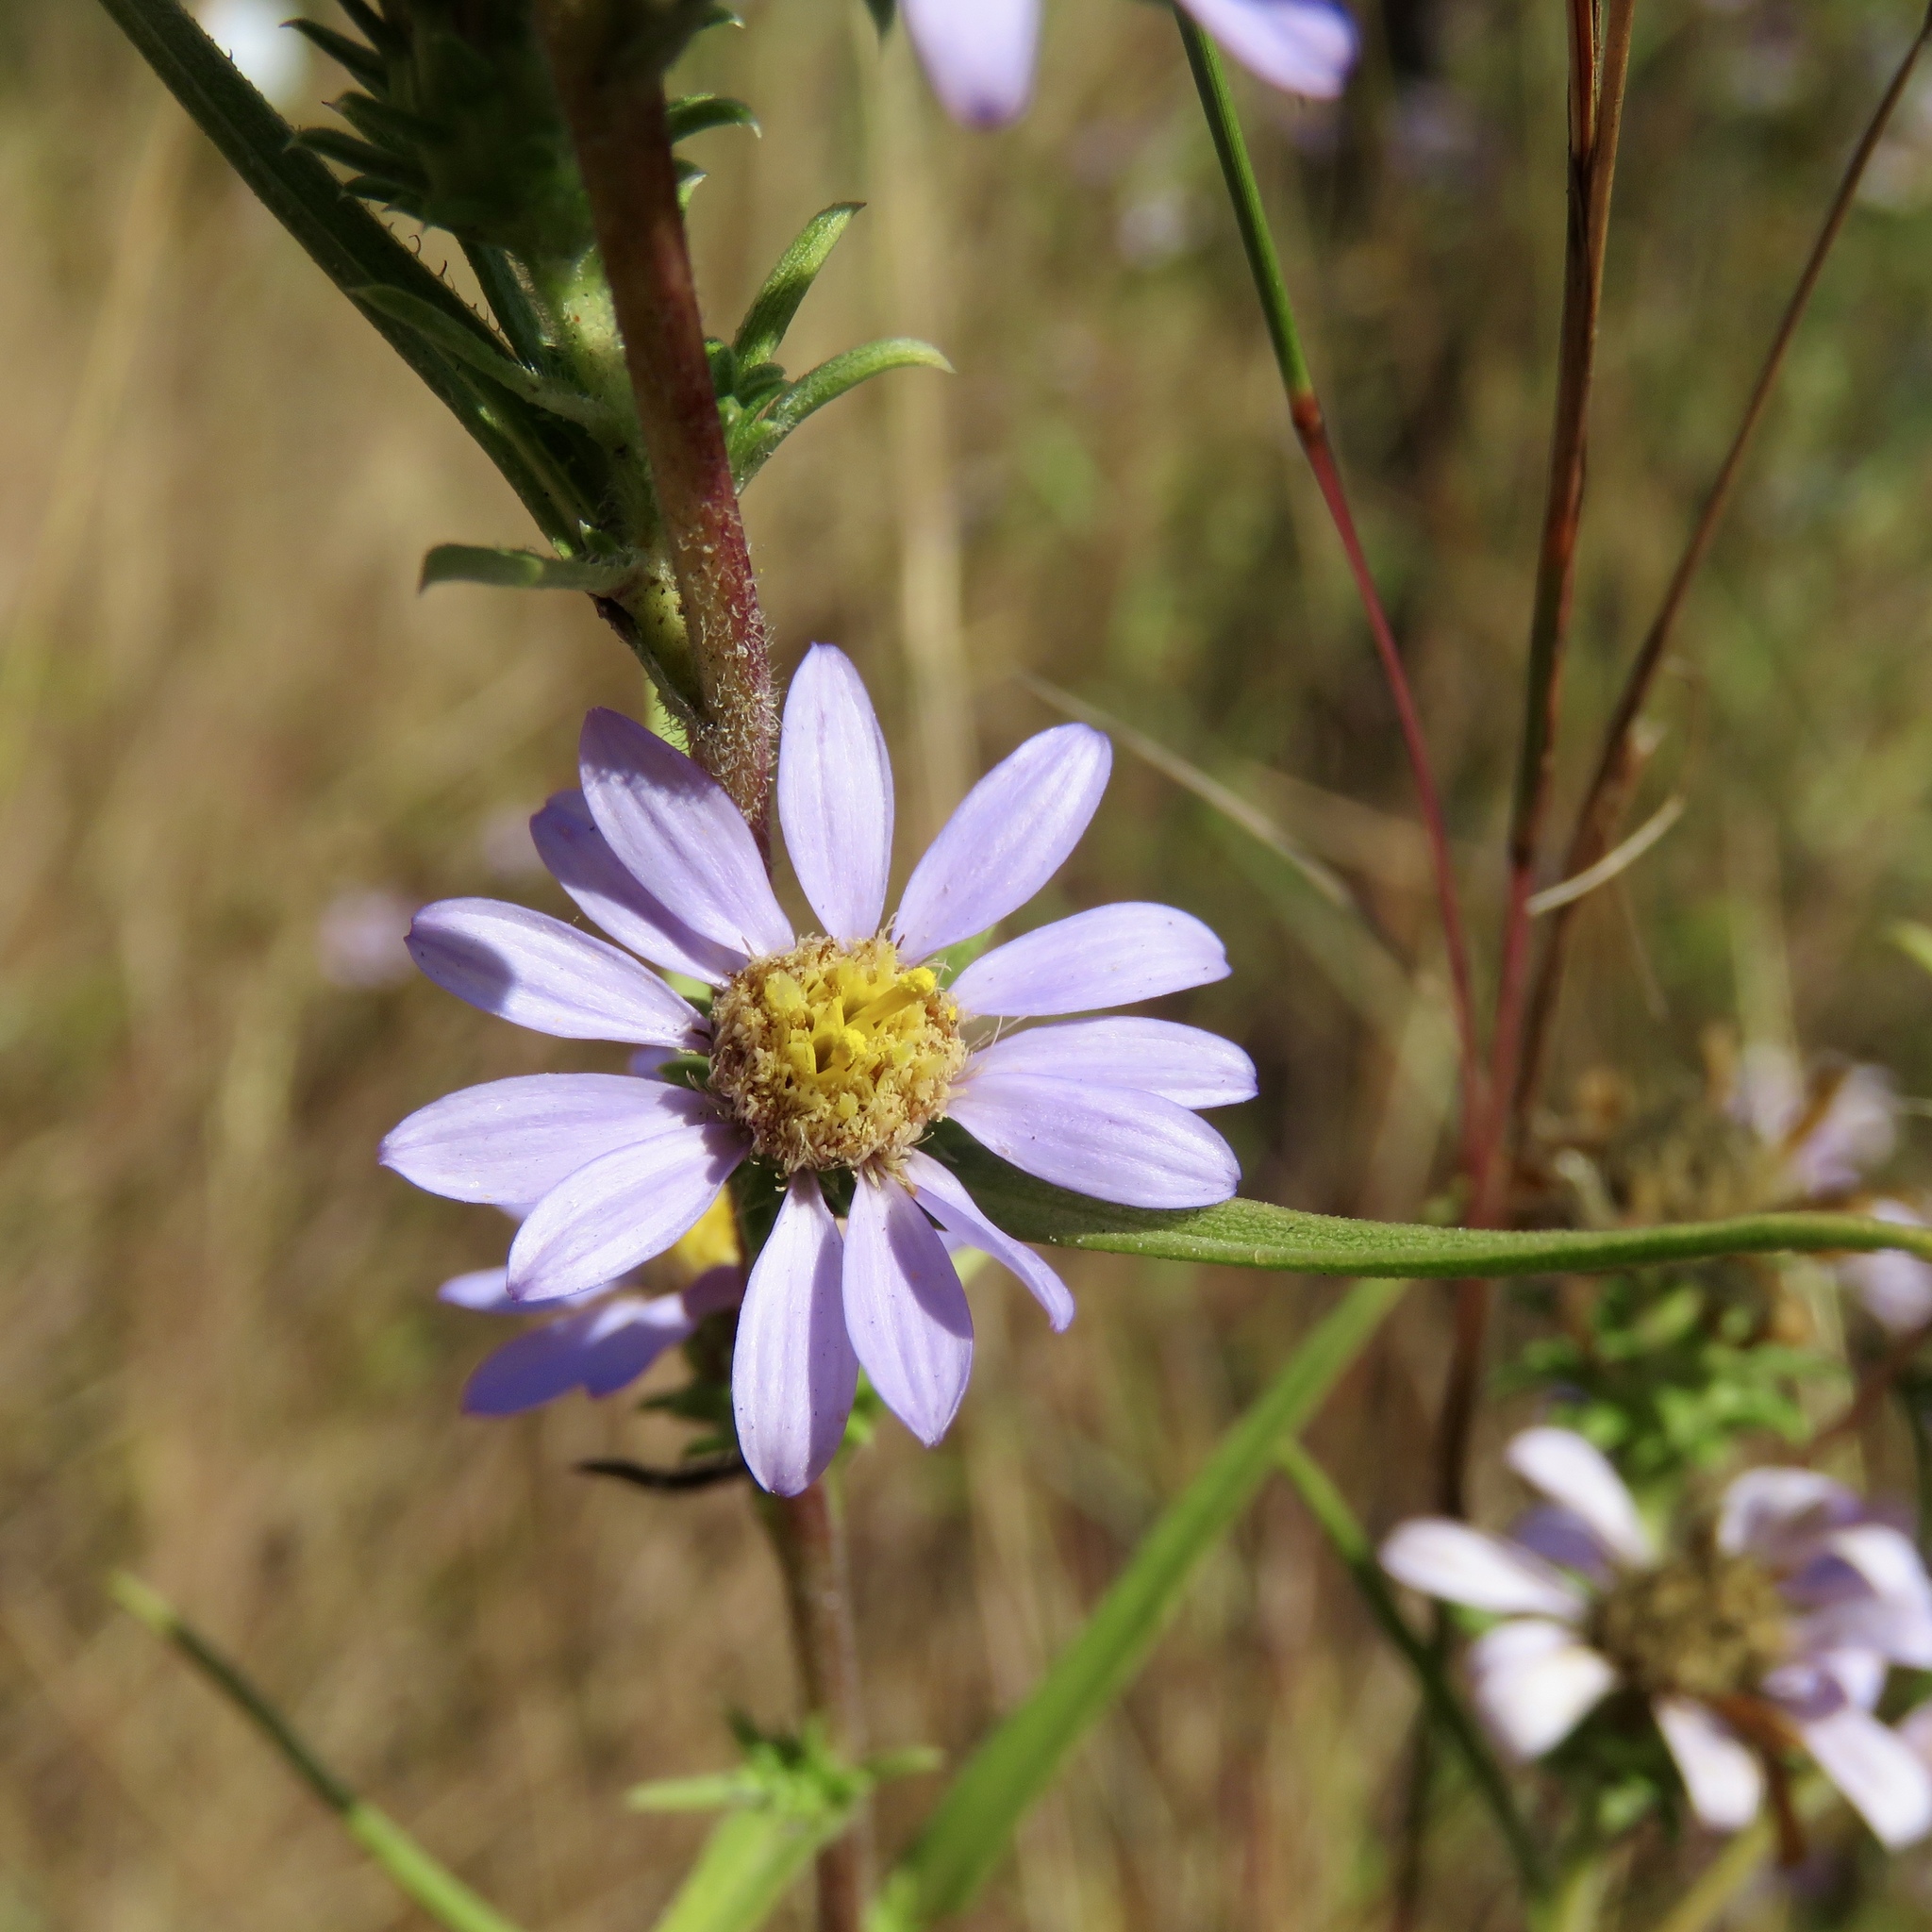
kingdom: Plantae
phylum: Tracheophyta
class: Magnoliopsida
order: Asterales
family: Asteraceae
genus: Eurybia
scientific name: Eurybia hemispherica
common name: Showy aster
